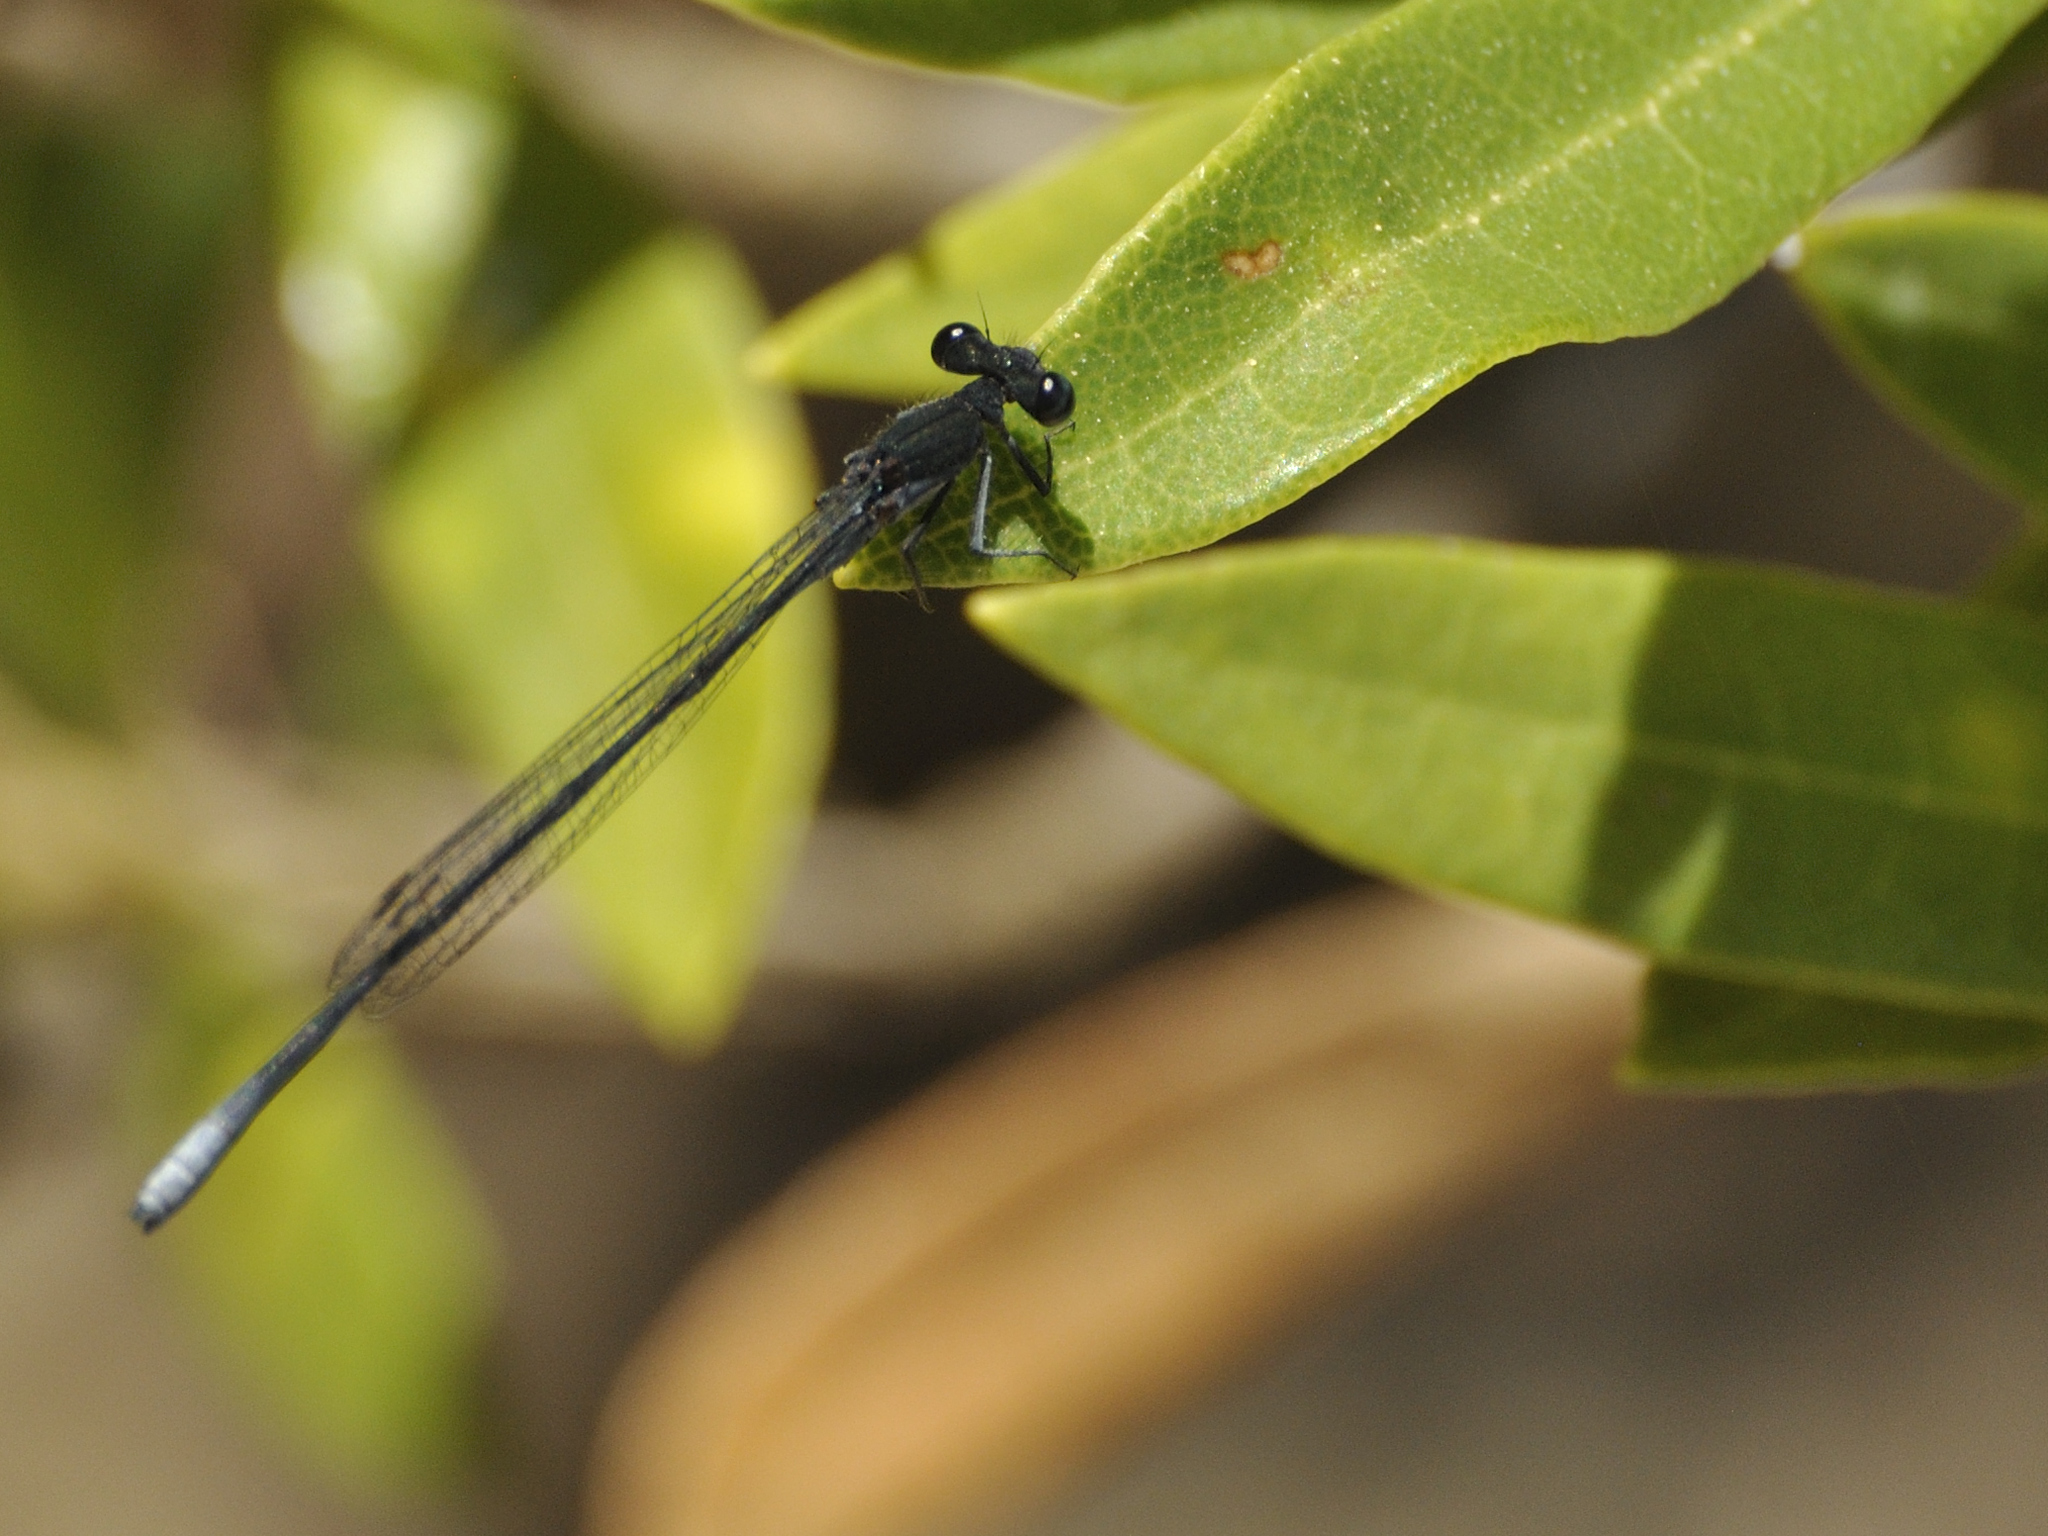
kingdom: Animalia
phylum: Arthropoda
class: Insecta
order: Odonata
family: Platycnemididae
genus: Elattoneura
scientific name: Elattoneura frenulata
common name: Sooty threadtail
